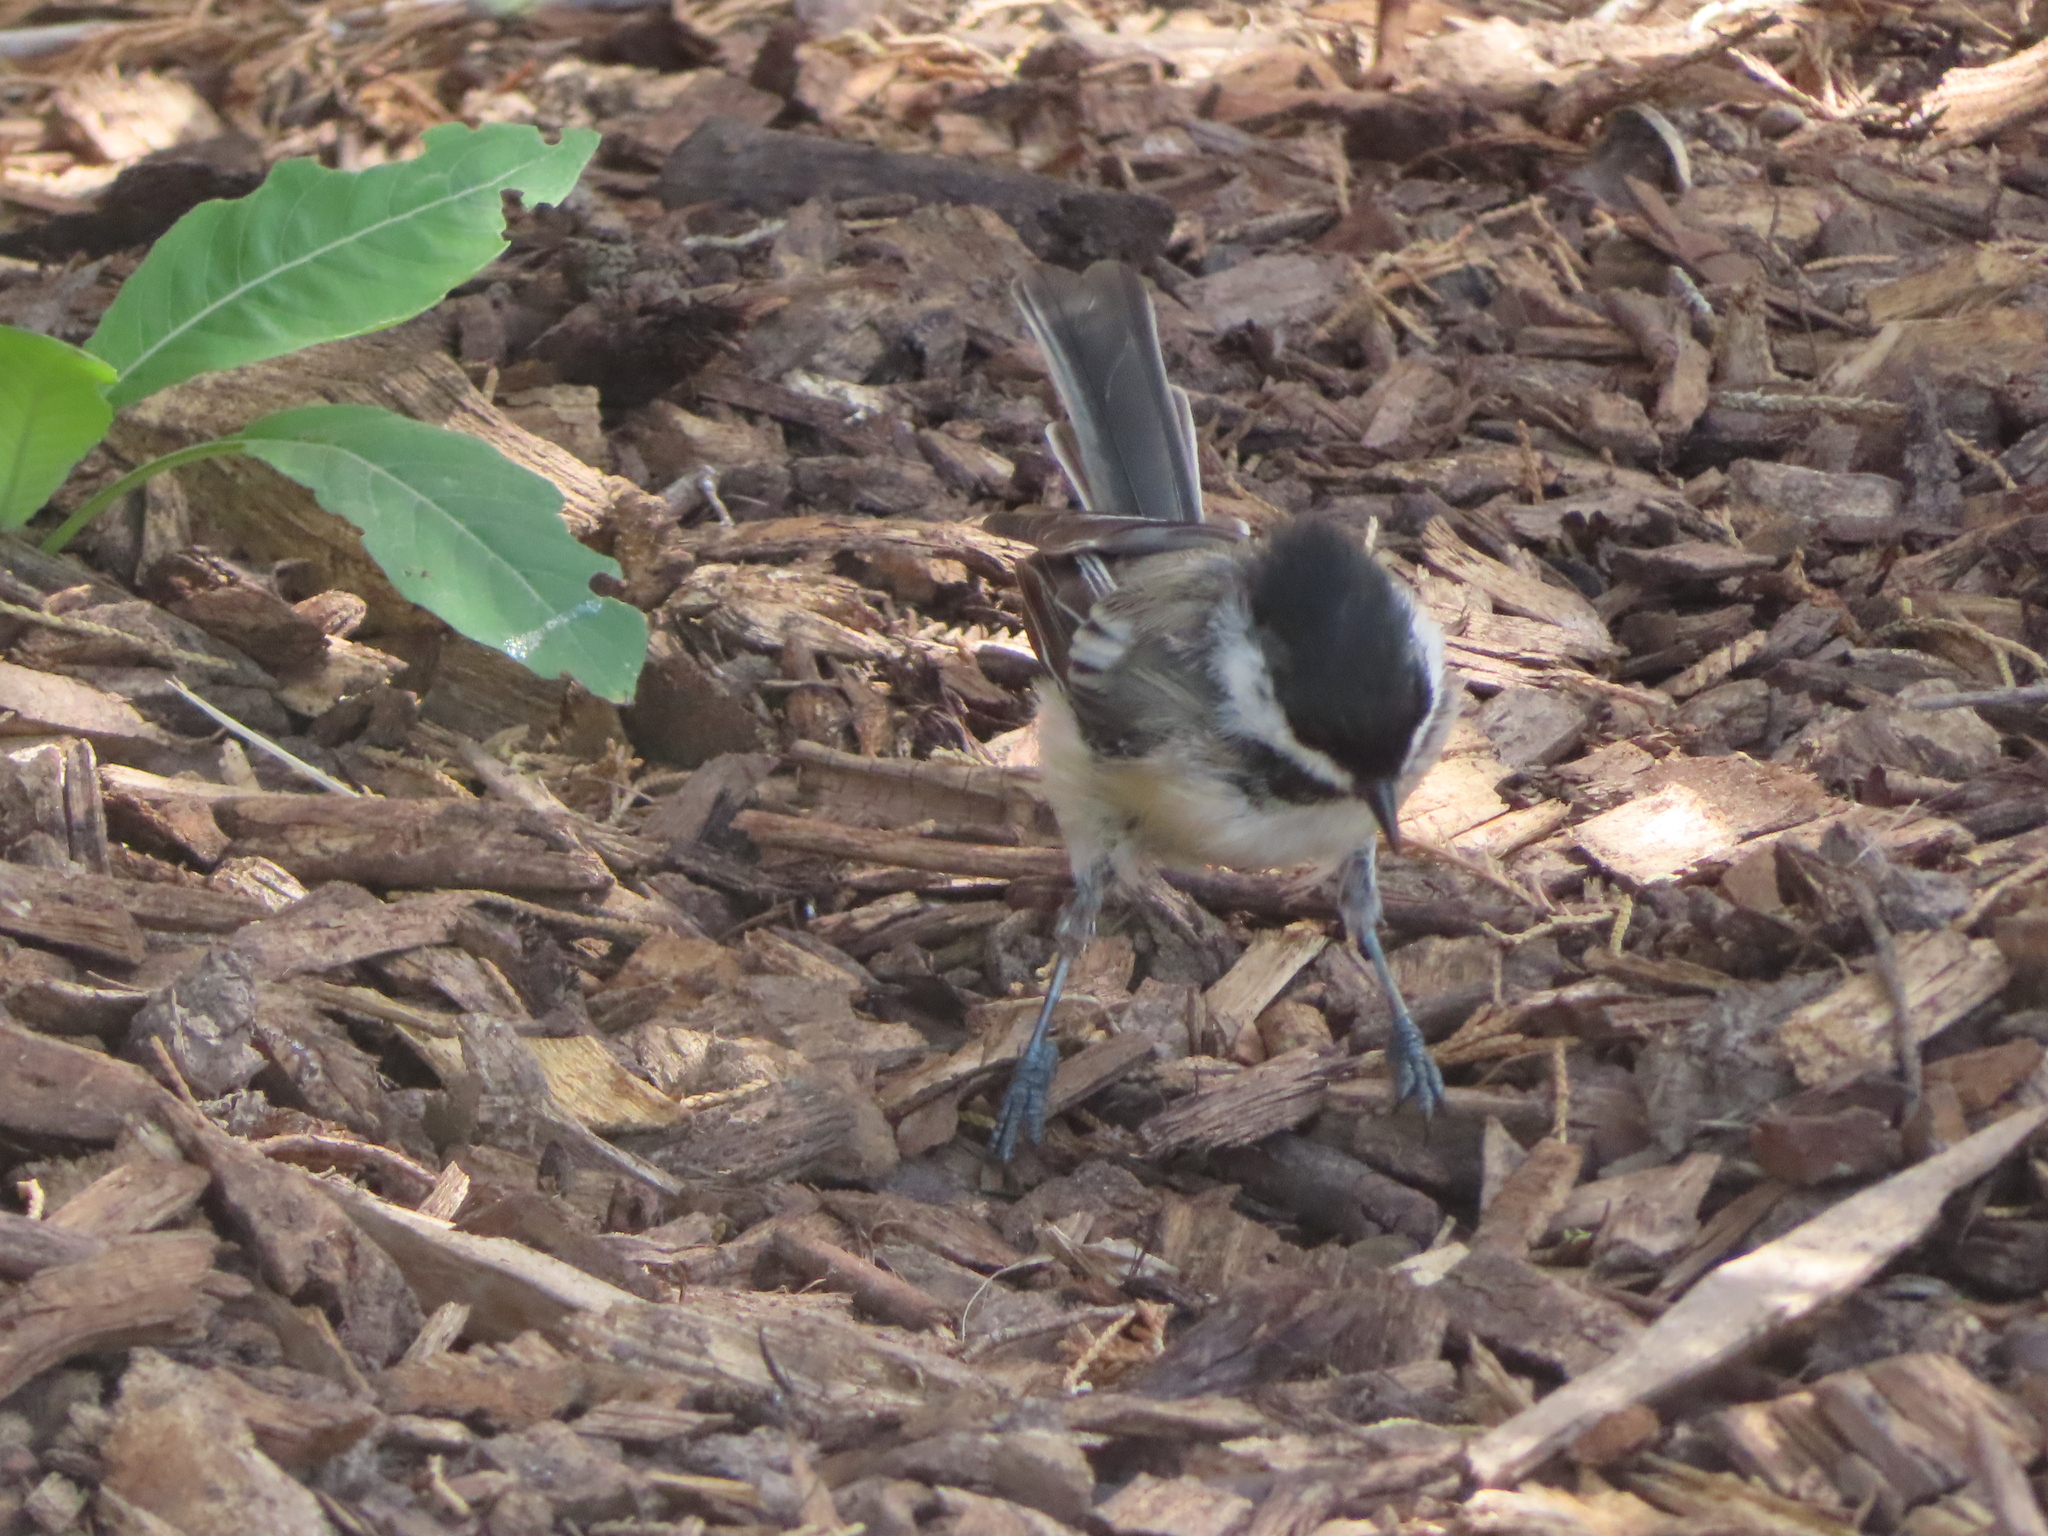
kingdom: Animalia
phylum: Chordata
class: Aves
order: Passeriformes
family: Paridae
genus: Poecile
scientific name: Poecile atricapillus
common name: Black-capped chickadee
